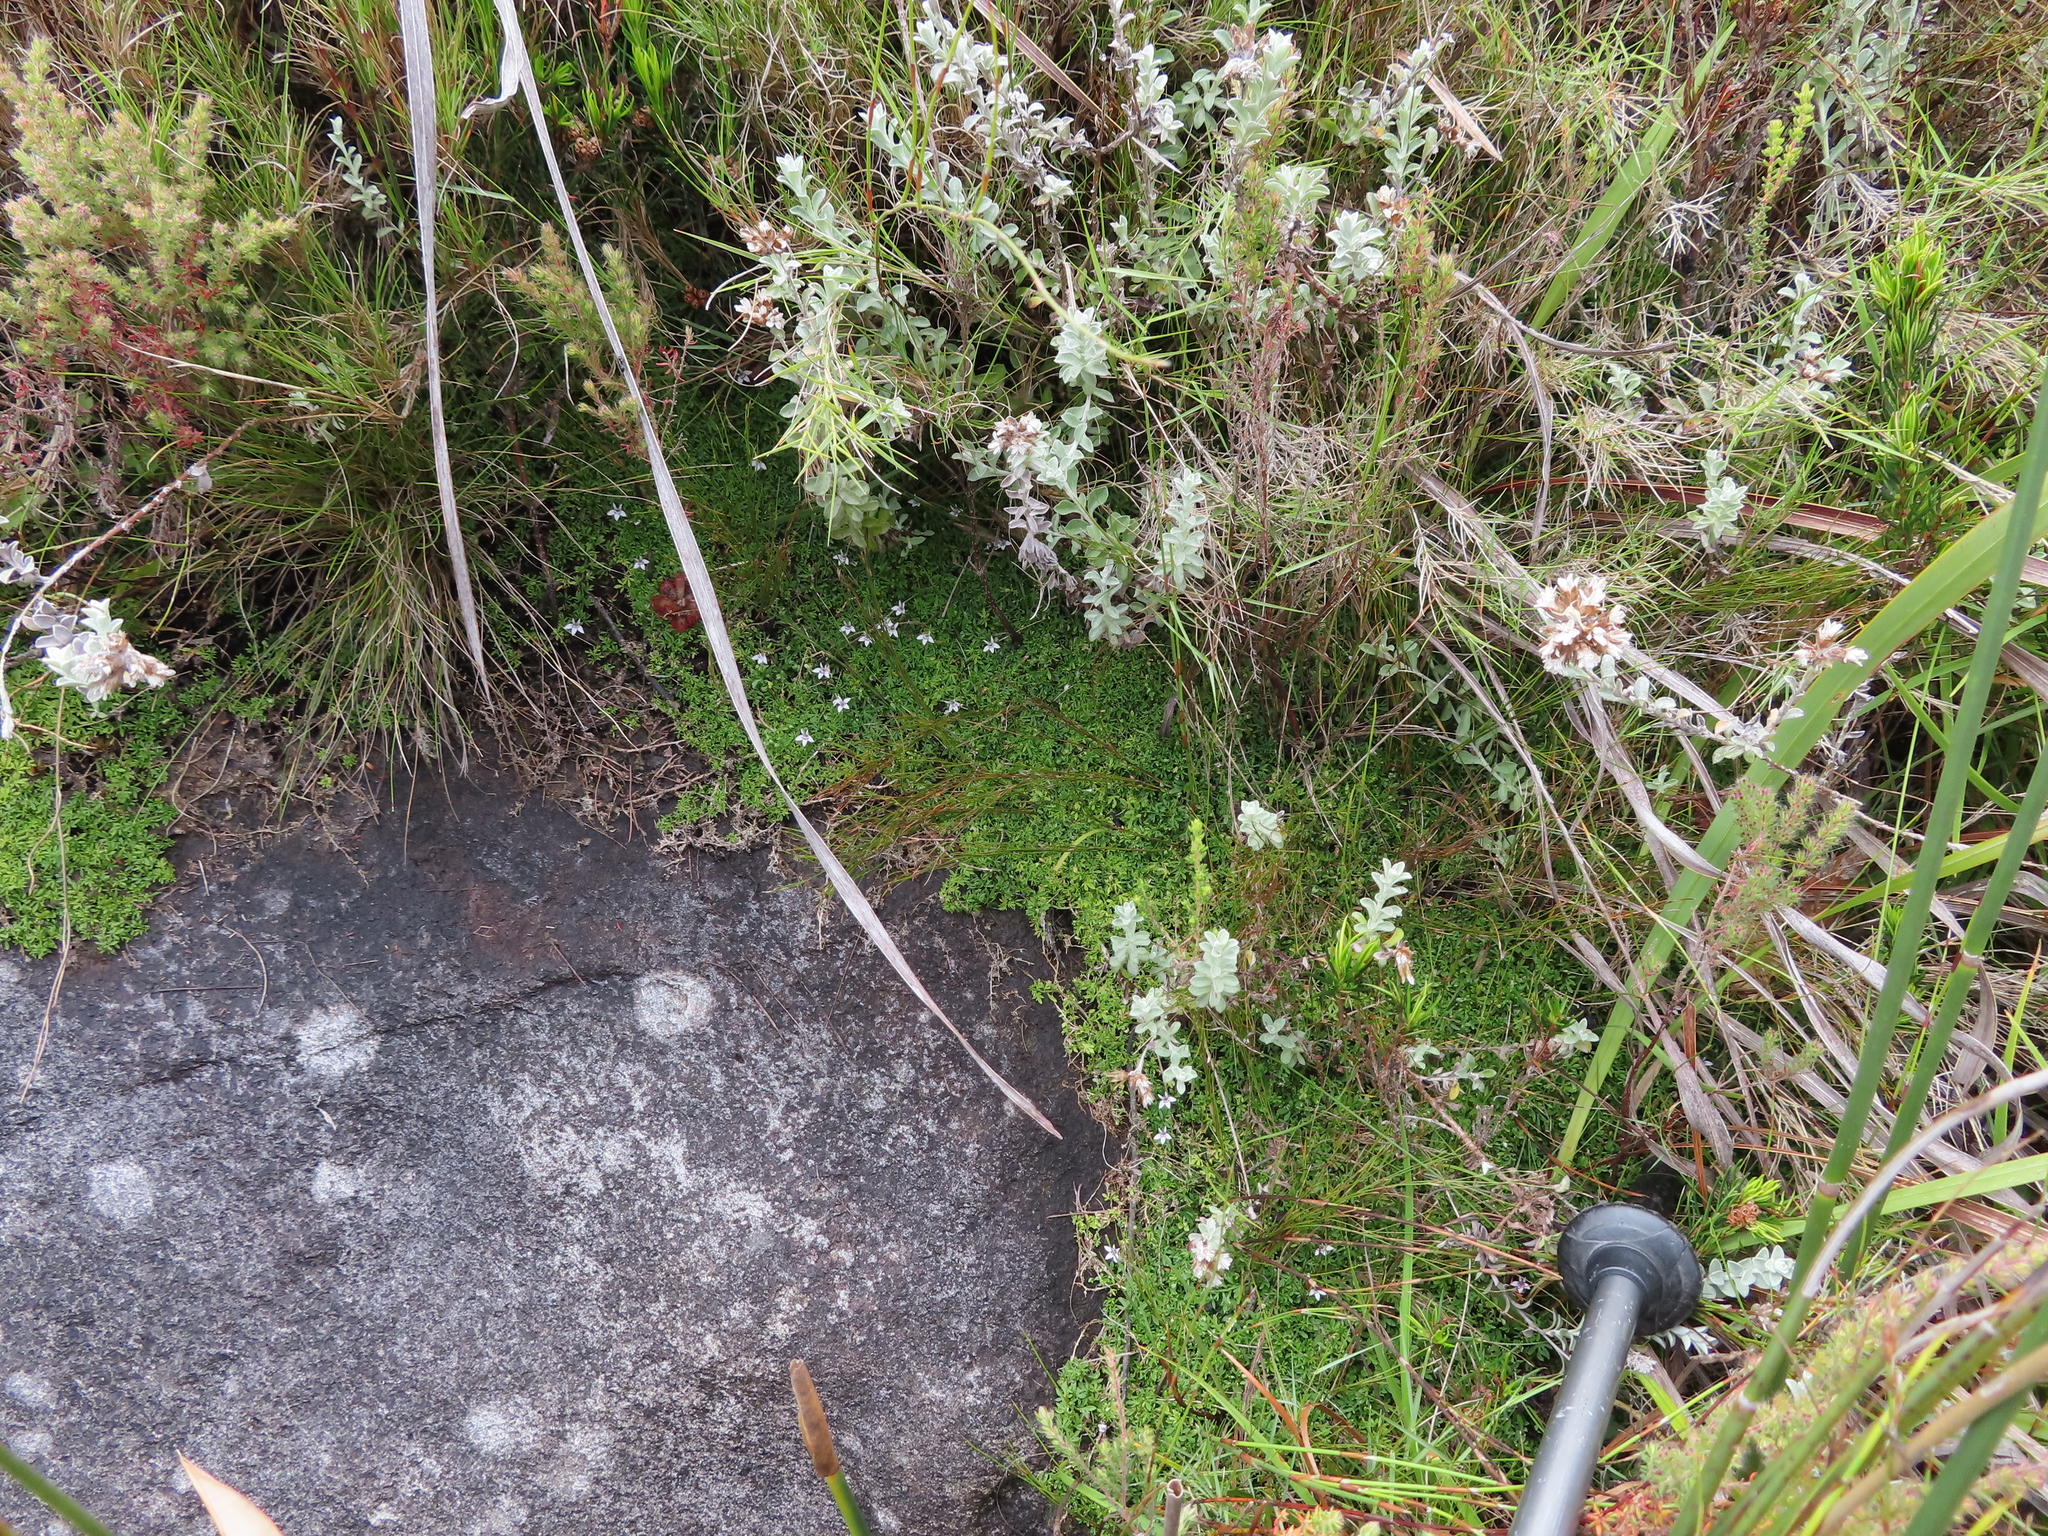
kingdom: Plantae
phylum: Tracheophyta
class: Magnoliopsida
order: Asterales
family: Campanulaceae
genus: Lobelia
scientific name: Lobelia muscoides
